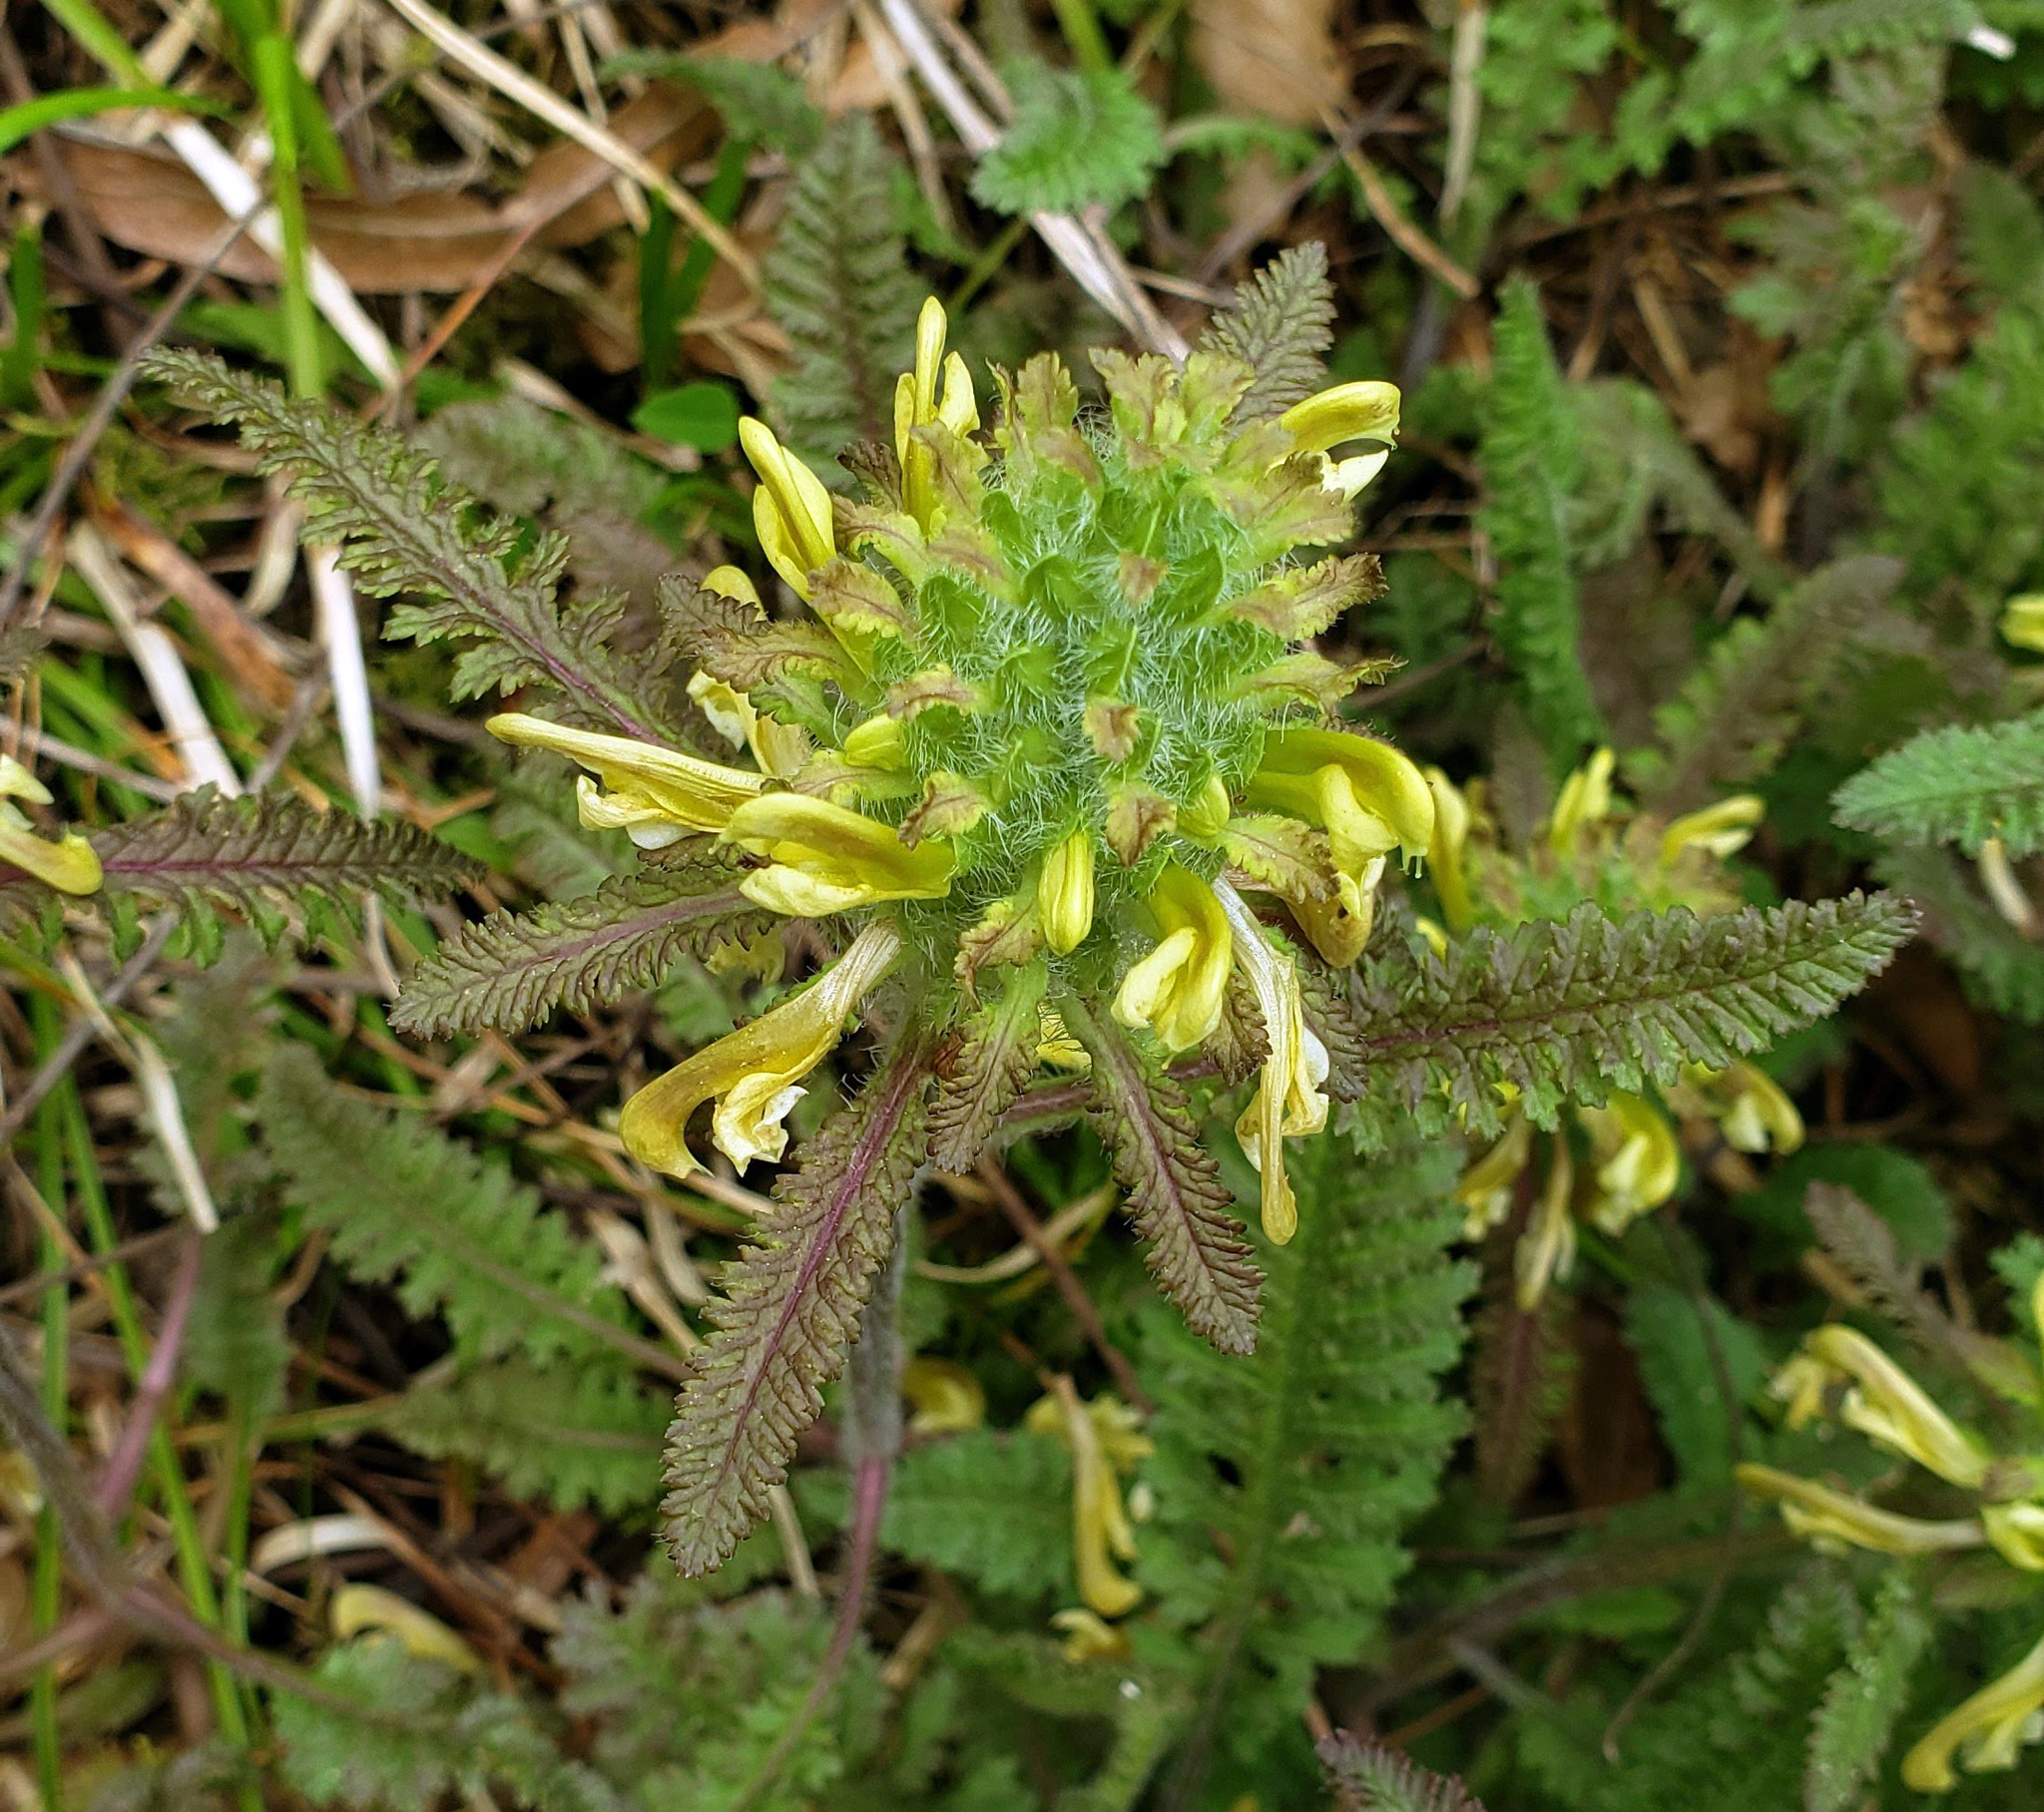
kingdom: Plantae
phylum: Tracheophyta
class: Magnoliopsida
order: Lamiales
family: Orobanchaceae
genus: Pedicularis
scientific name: Pedicularis canadensis
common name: Early lousewort
